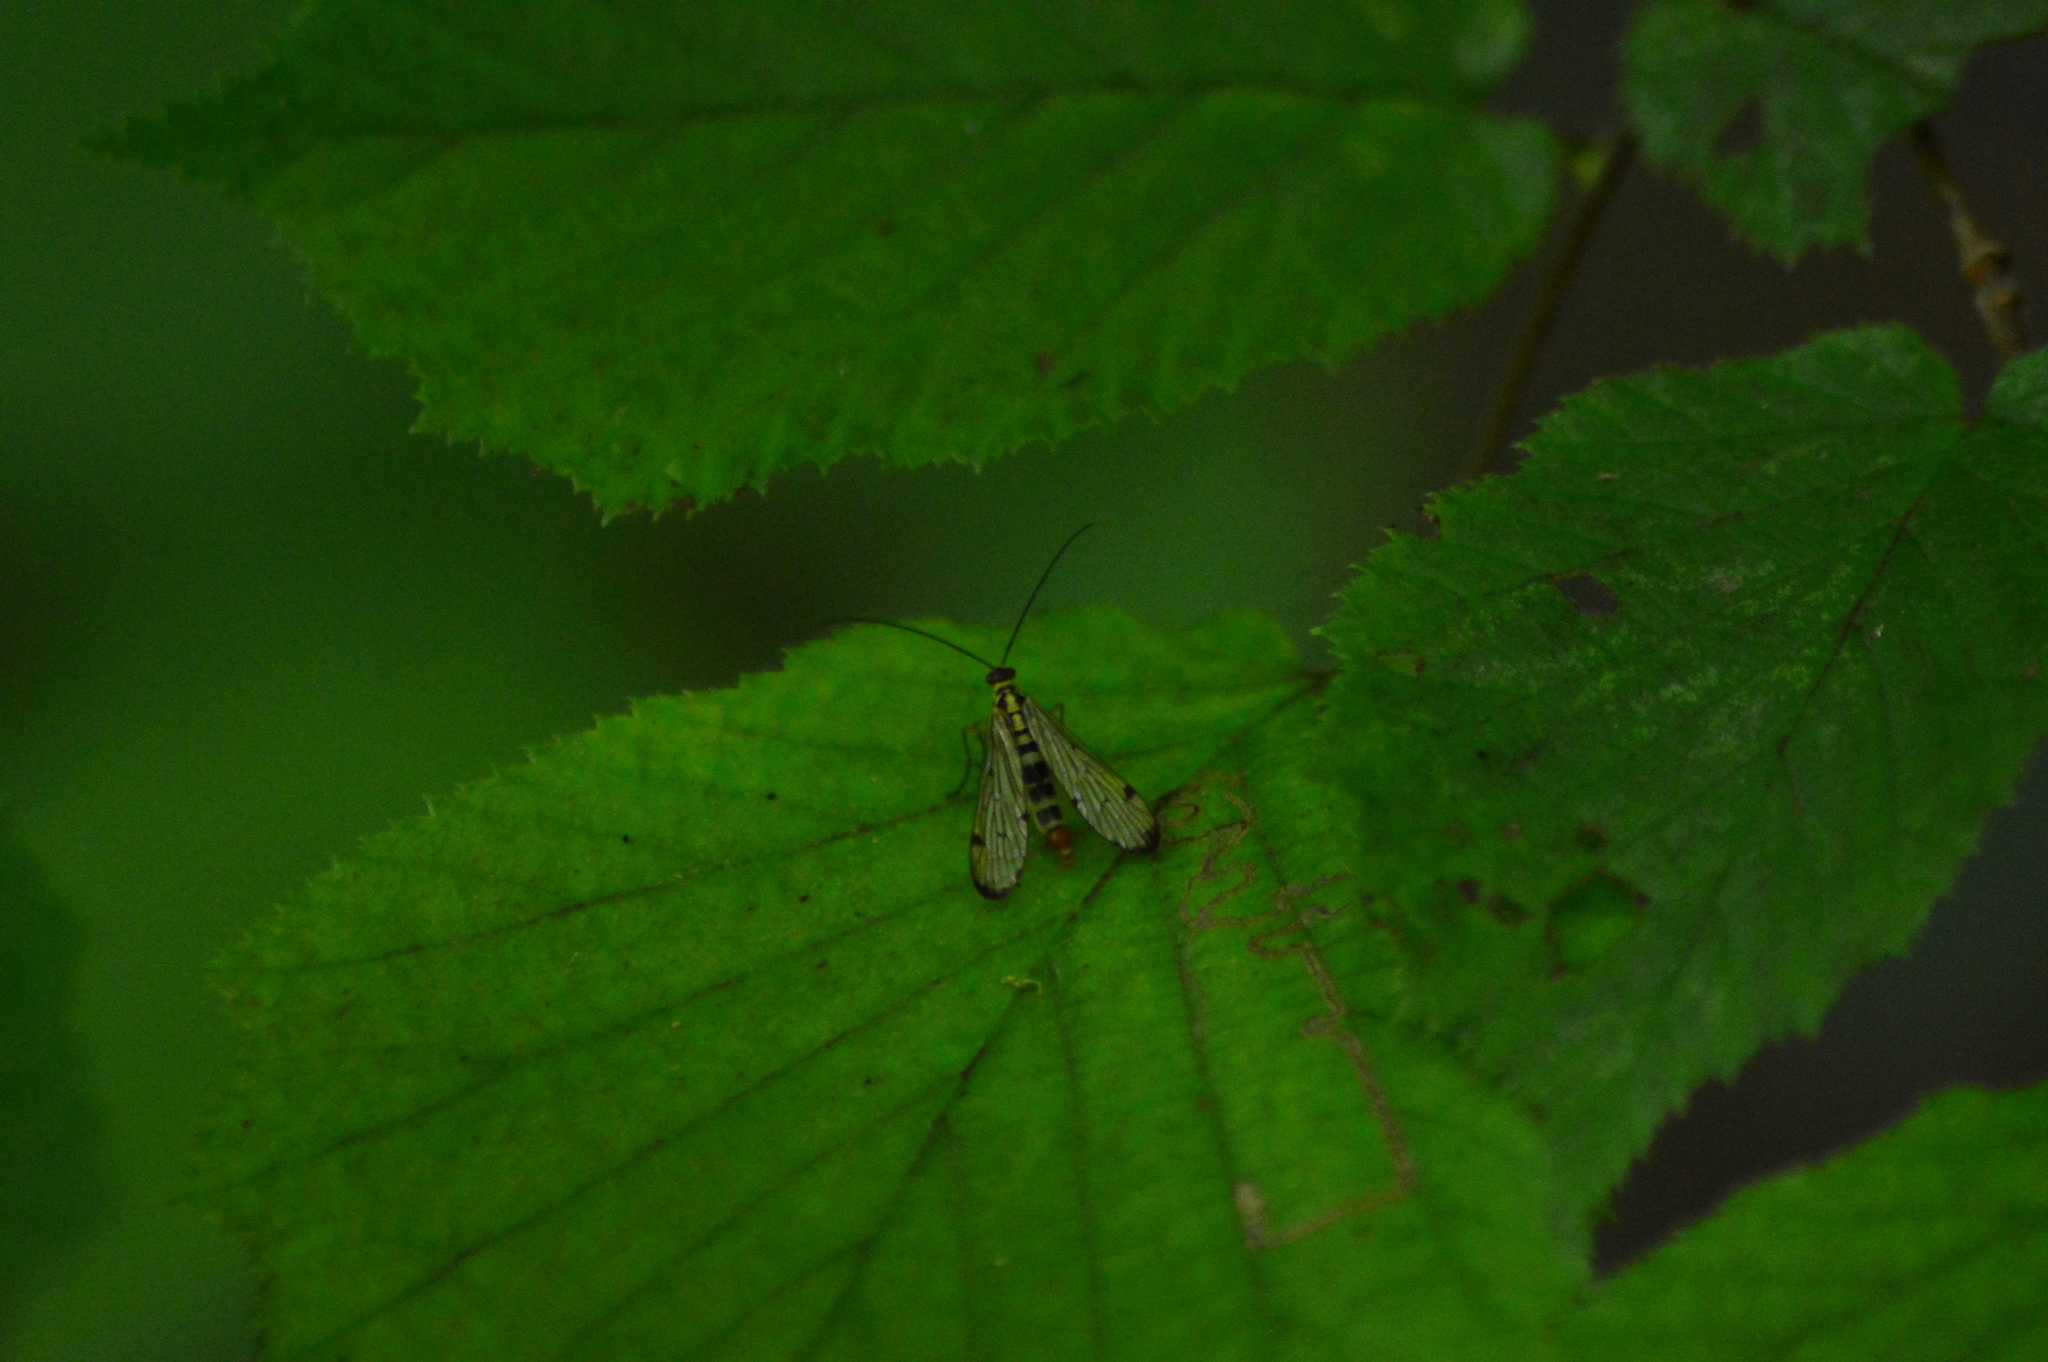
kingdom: Animalia
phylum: Arthropoda
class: Insecta
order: Mecoptera
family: Panorpidae
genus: Panorpa
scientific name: Panorpa germanica
